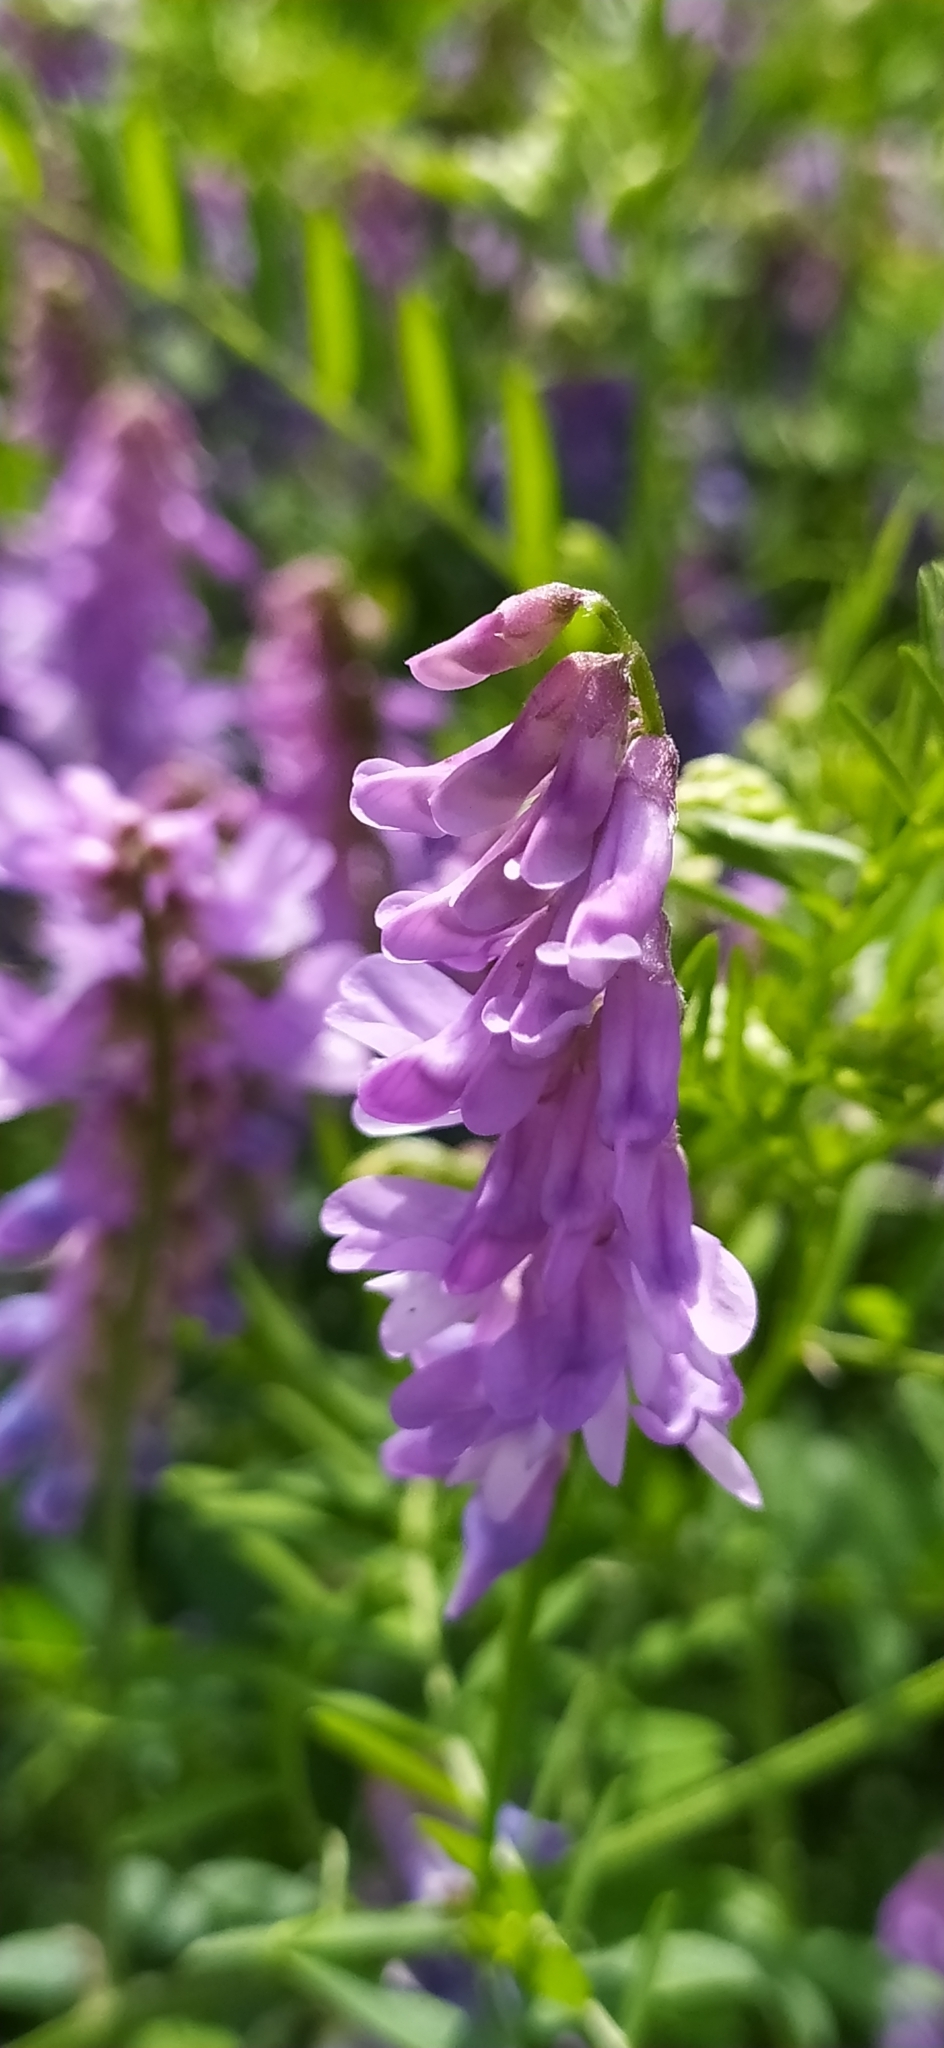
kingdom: Plantae
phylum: Tracheophyta
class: Magnoliopsida
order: Fabales
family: Fabaceae
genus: Vicia
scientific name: Vicia cracca
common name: Bird vetch
